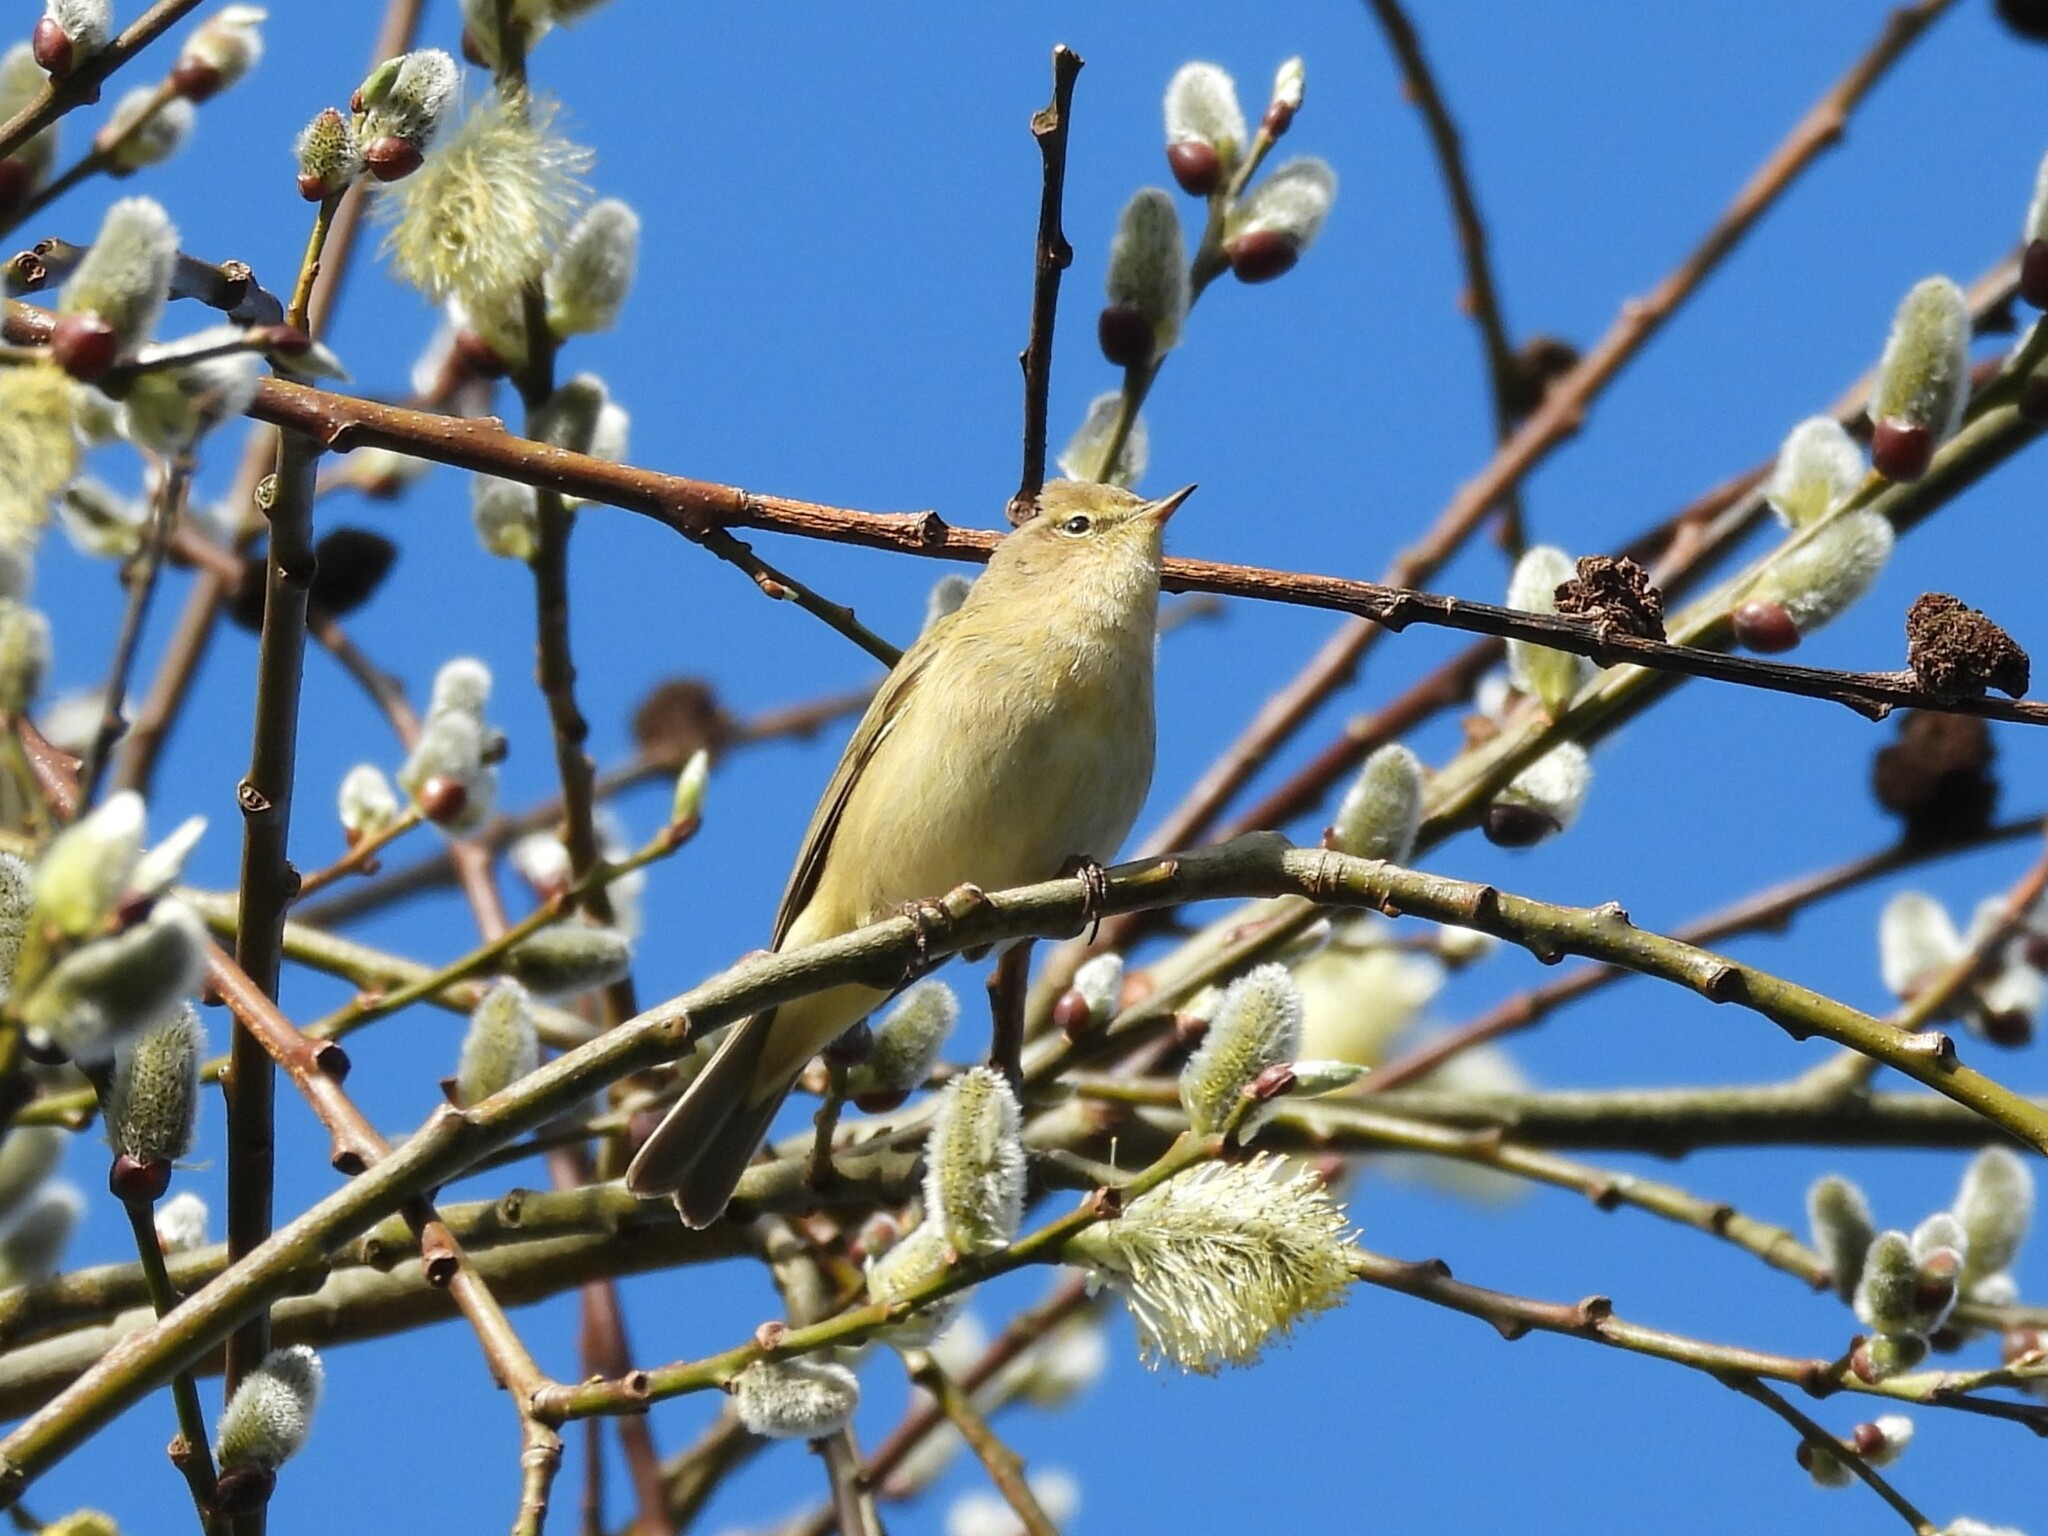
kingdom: Animalia
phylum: Chordata
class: Aves
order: Passeriformes
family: Phylloscopidae
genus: Phylloscopus
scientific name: Phylloscopus collybita
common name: Common chiffchaff
